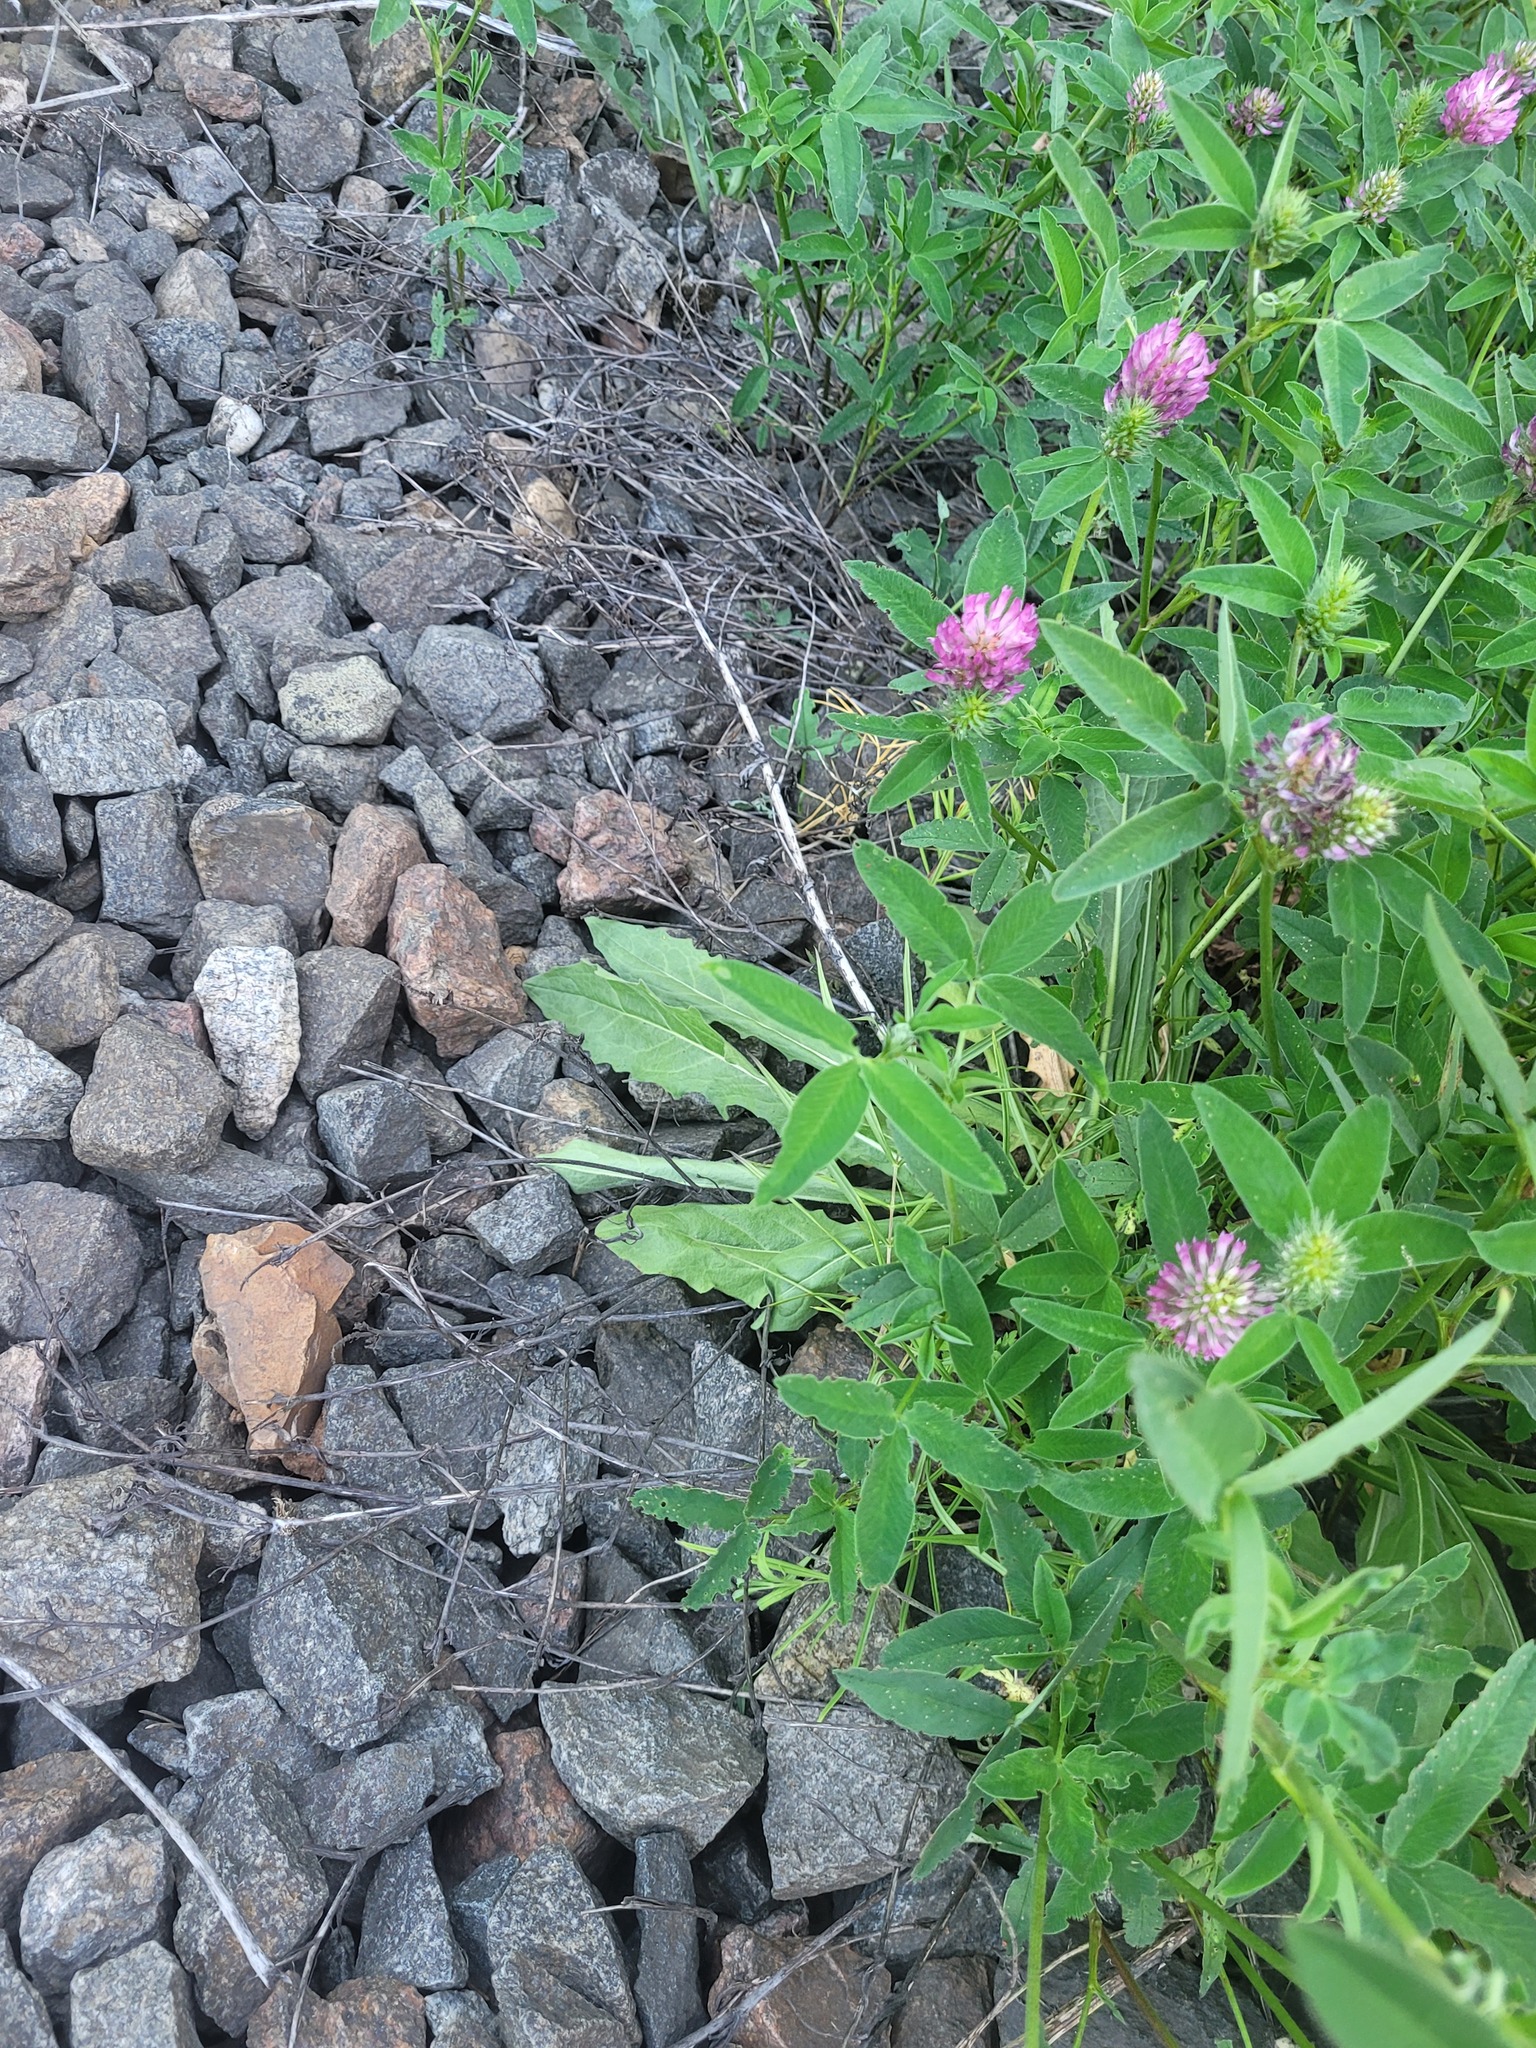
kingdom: Plantae
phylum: Tracheophyta
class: Magnoliopsida
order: Asterales
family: Asteraceae
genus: Leontodon
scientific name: Leontodon hispidus
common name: Rough hawkbit
